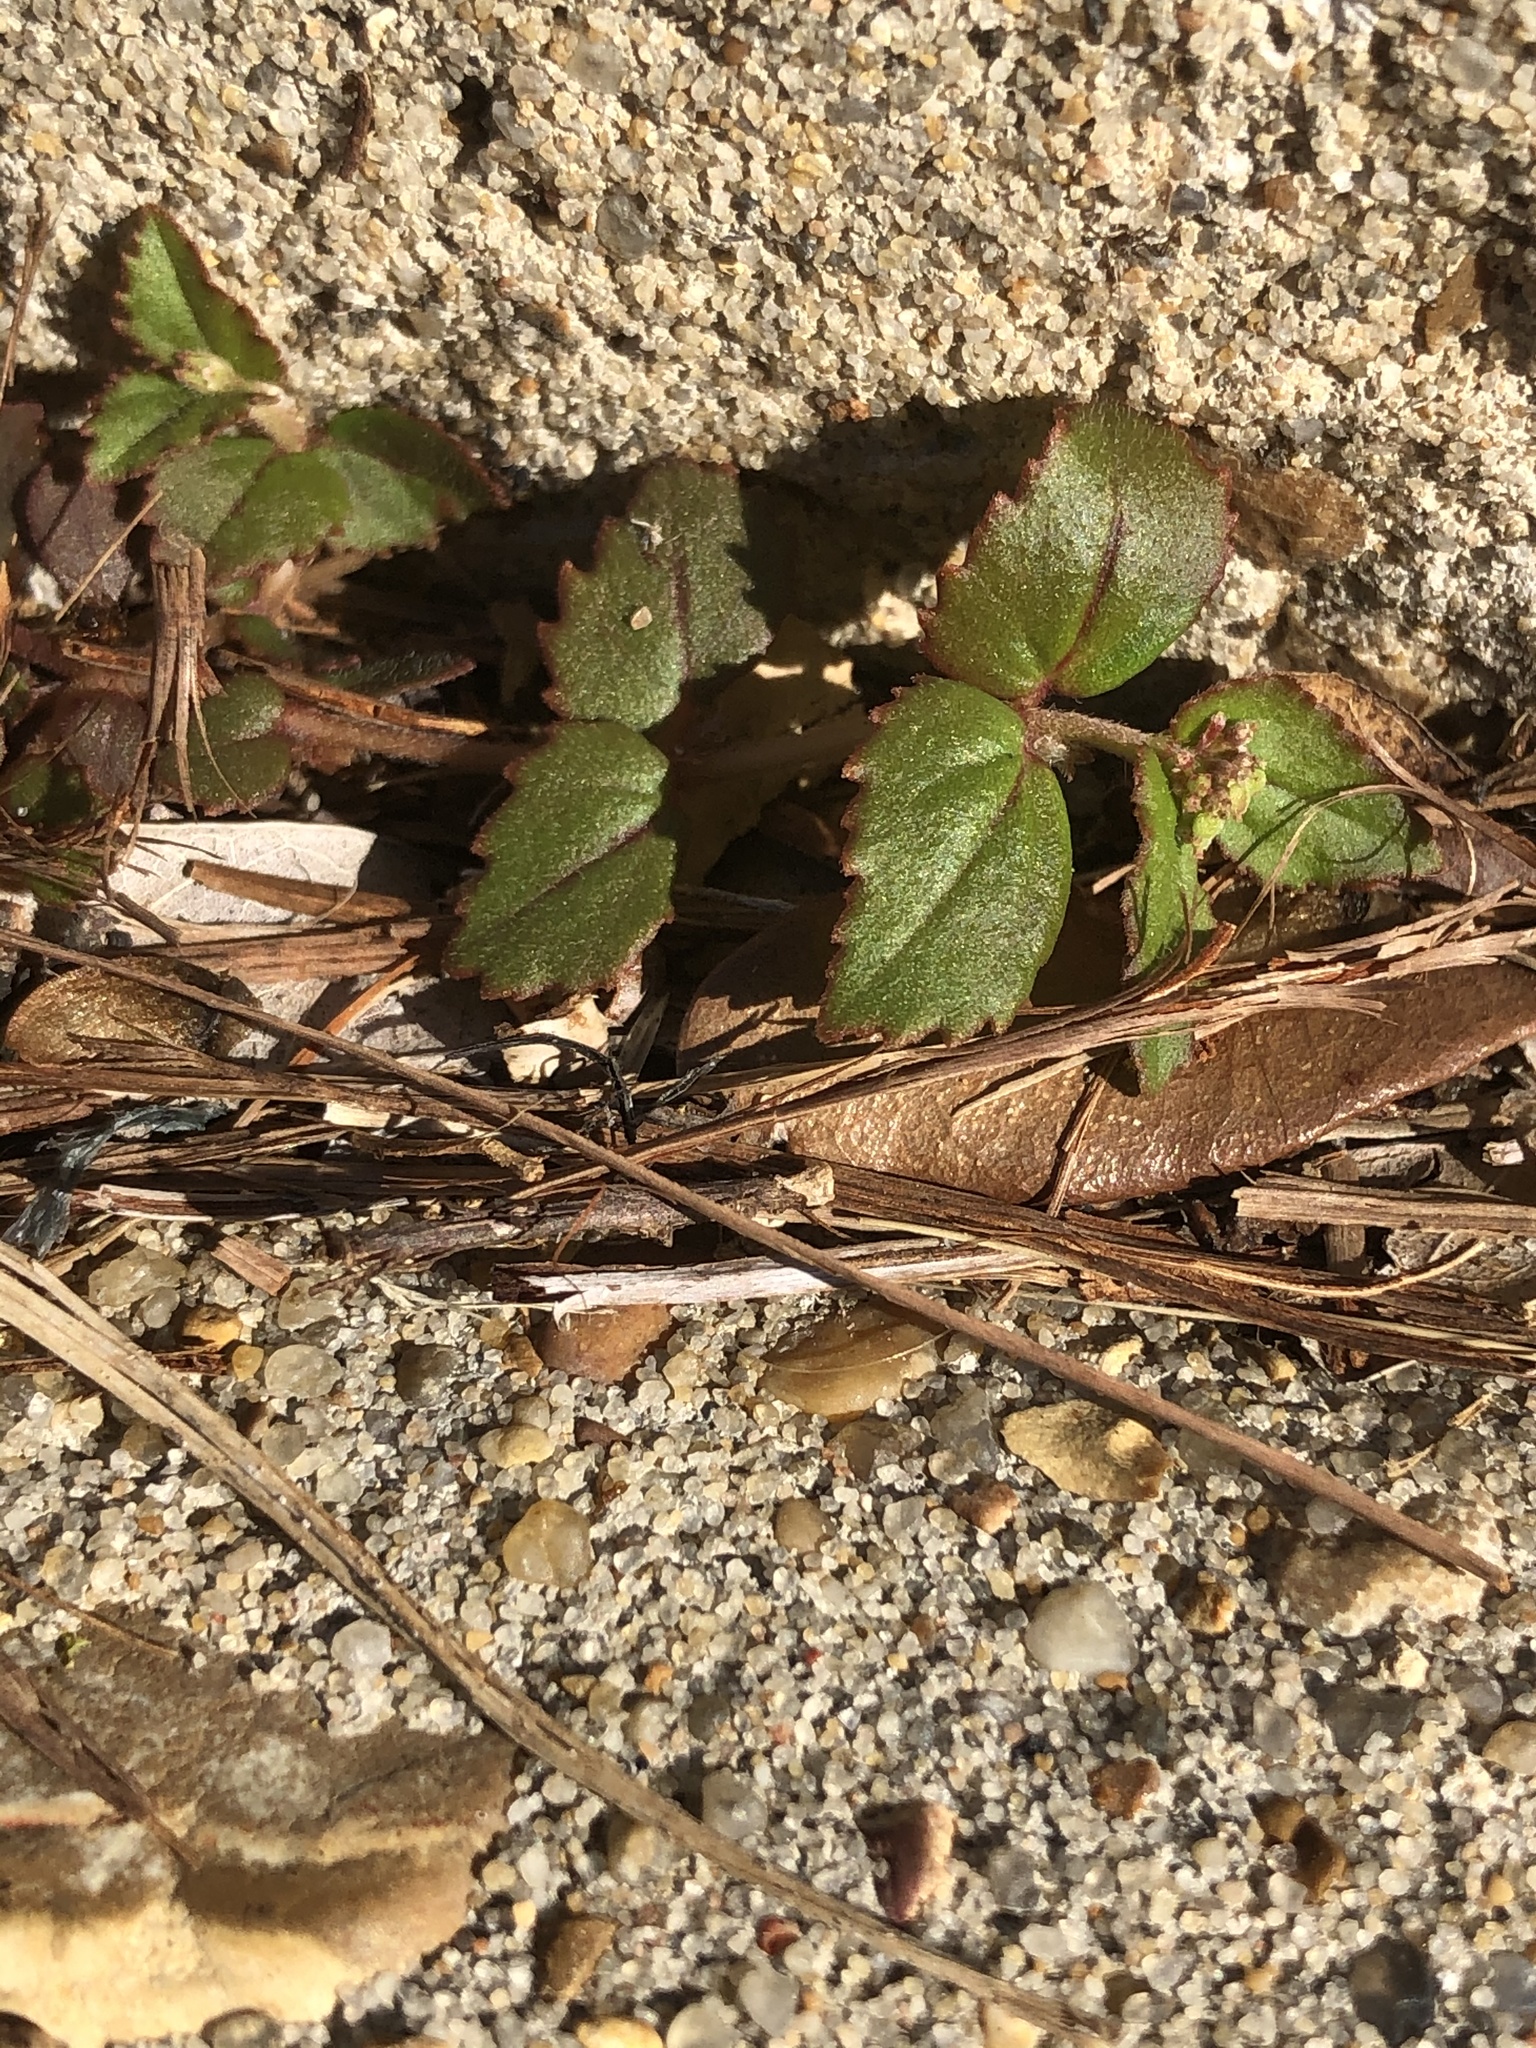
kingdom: Plantae
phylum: Tracheophyta
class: Magnoliopsida
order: Malpighiales
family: Euphorbiaceae
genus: Euphorbia
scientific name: Euphorbia ophthalmica
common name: Florida hammock sandmat
